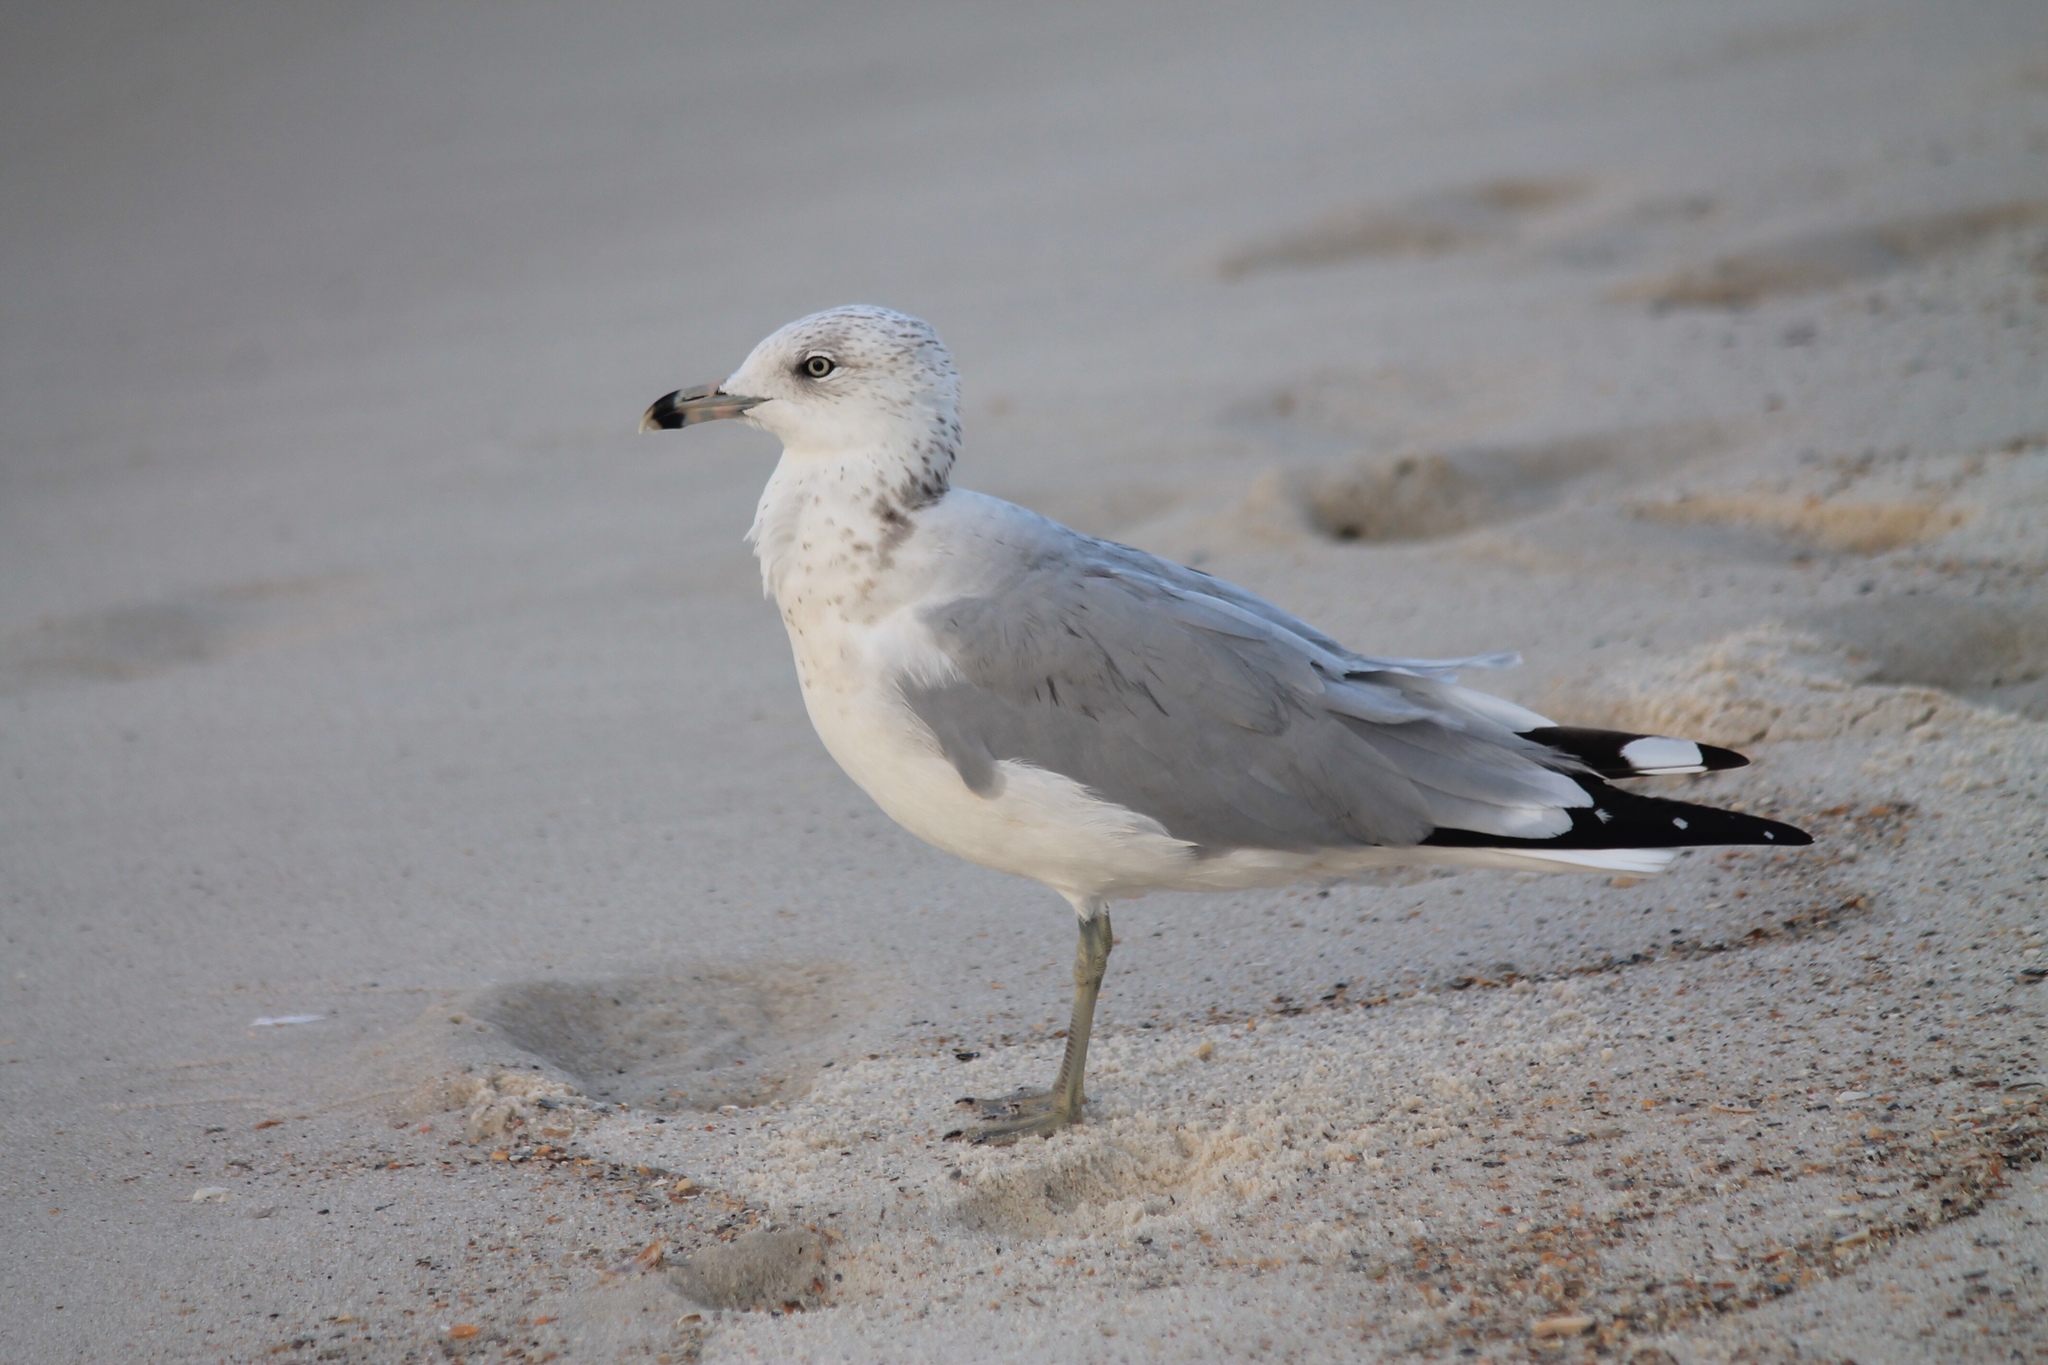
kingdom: Animalia
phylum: Chordata
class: Aves
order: Charadriiformes
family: Laridae
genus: Larus
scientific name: Larus delawarensis
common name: Ring-billed gull
